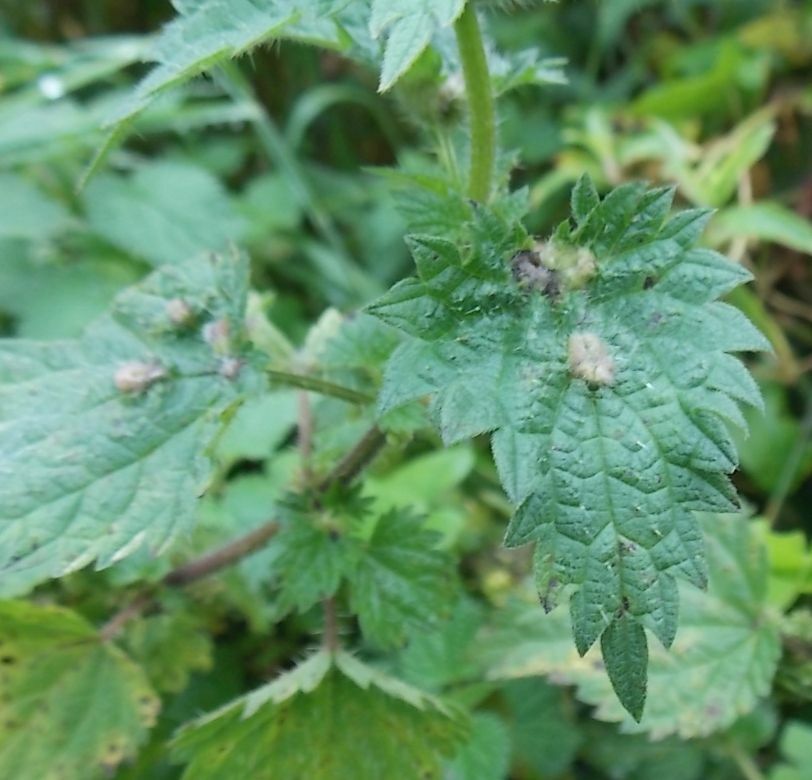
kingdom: Animalia
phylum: Arthropoda
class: Insecta
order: Diptera
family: Cecidomyiidae
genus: Dasineura
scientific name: Dasineura urticae
